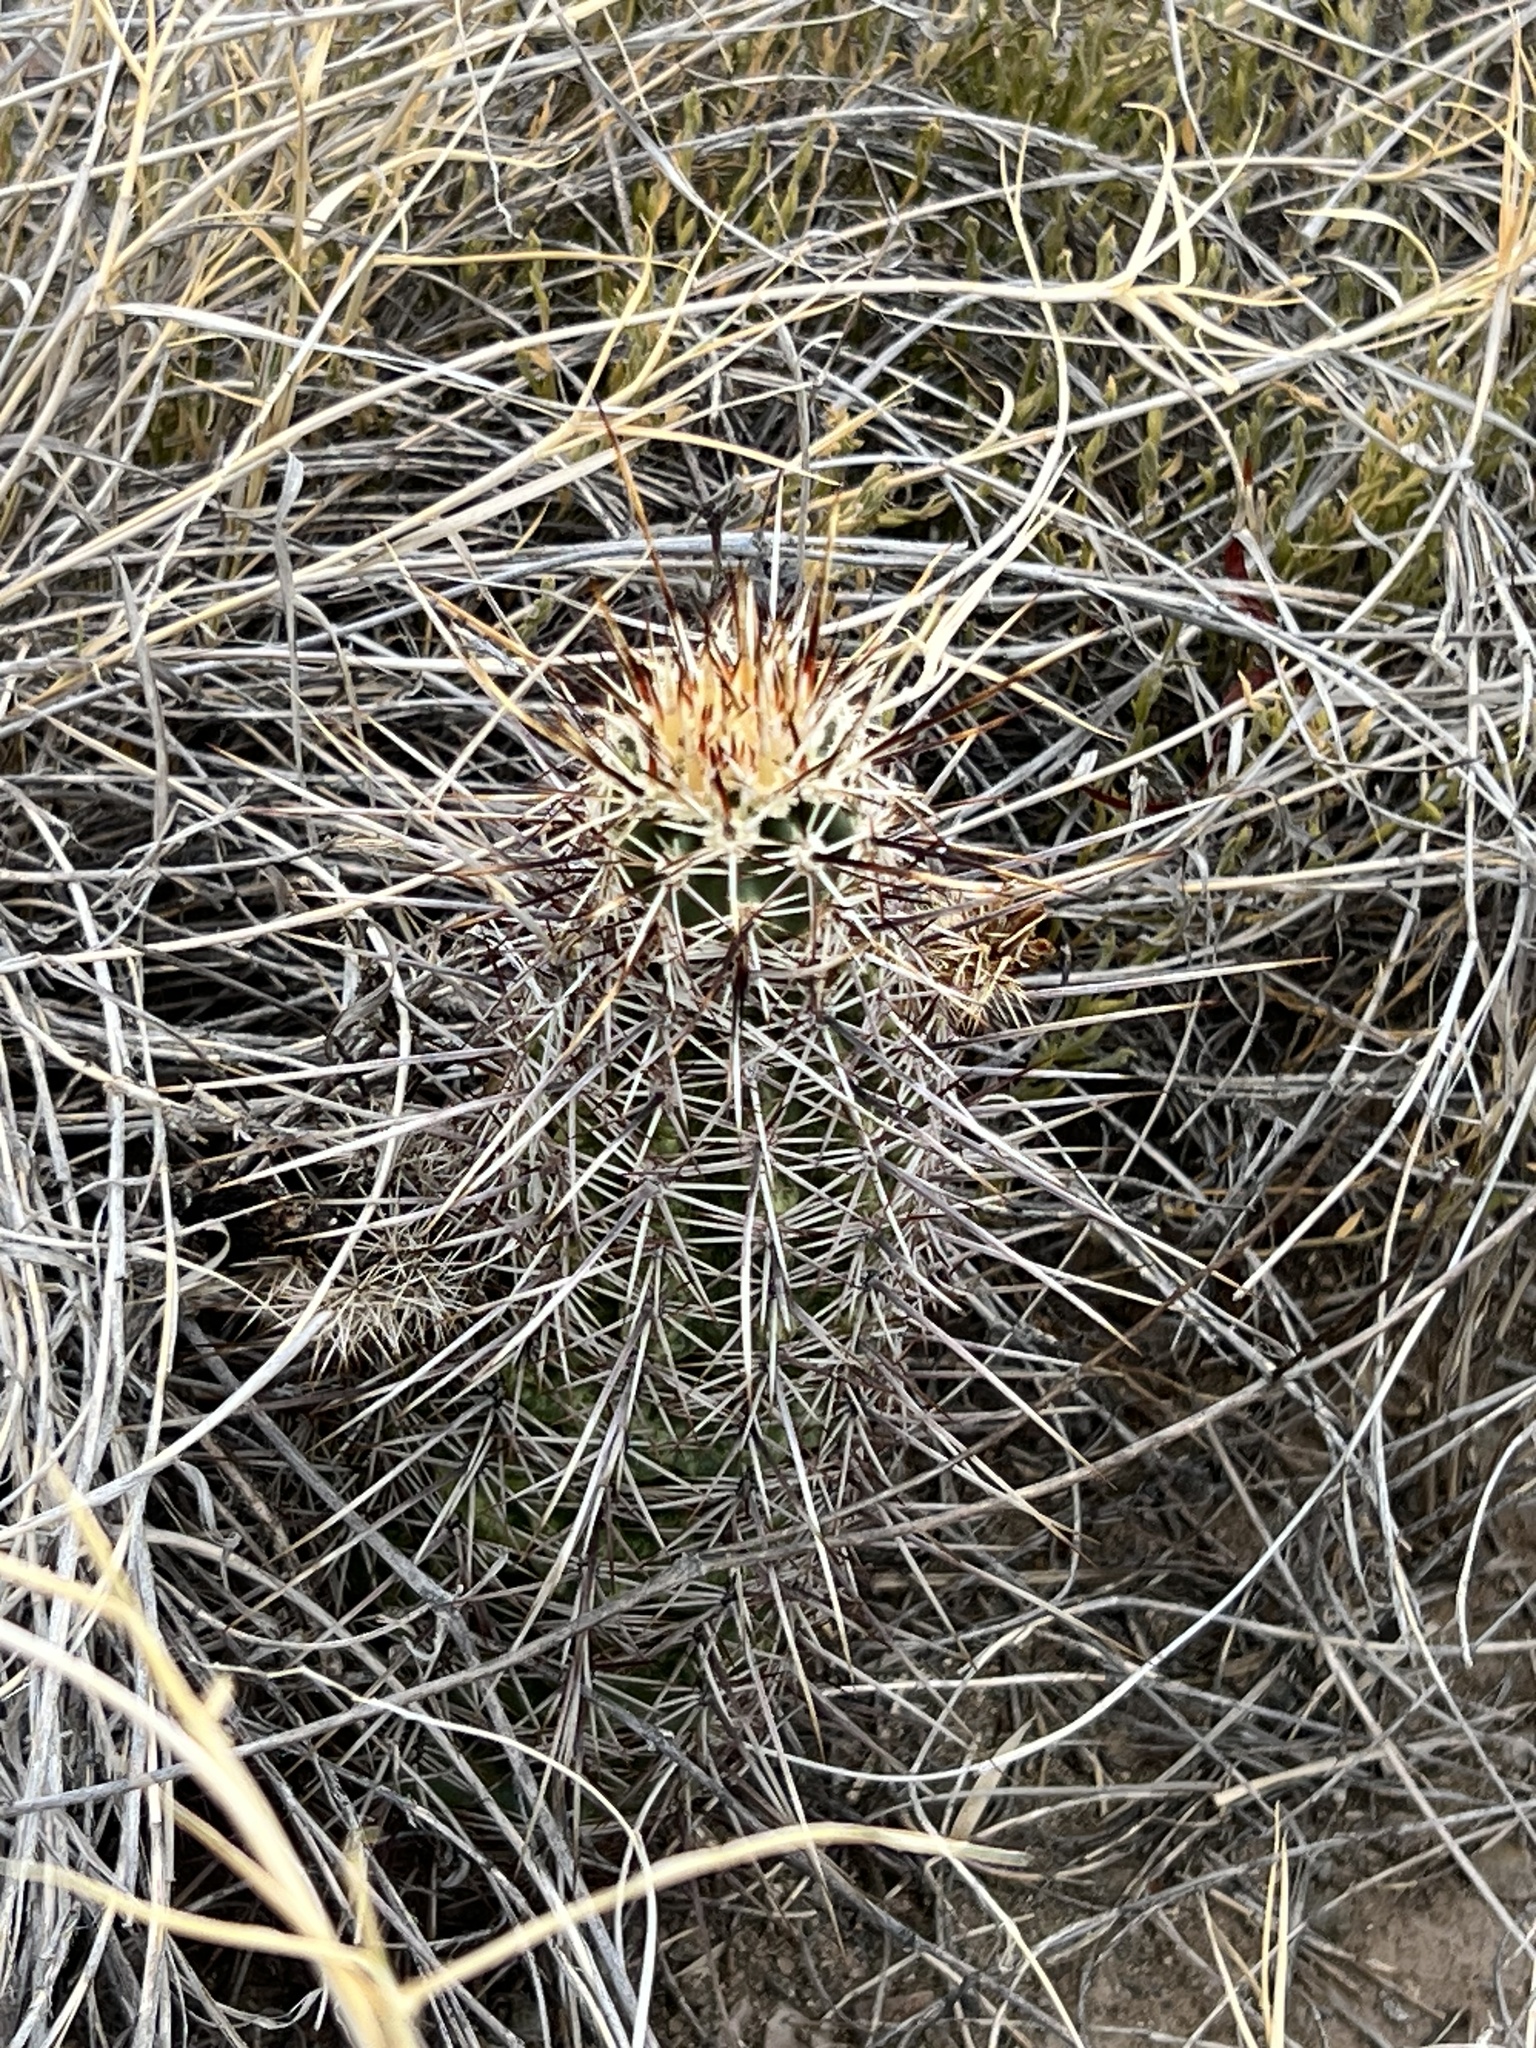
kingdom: Plantae
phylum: Tracheophyta
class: Magnoliopsida
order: Caryophyllales
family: Cactaceae
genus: Echinocereus
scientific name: Echinocereus fasciculatus
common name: Bundle hedgehog
